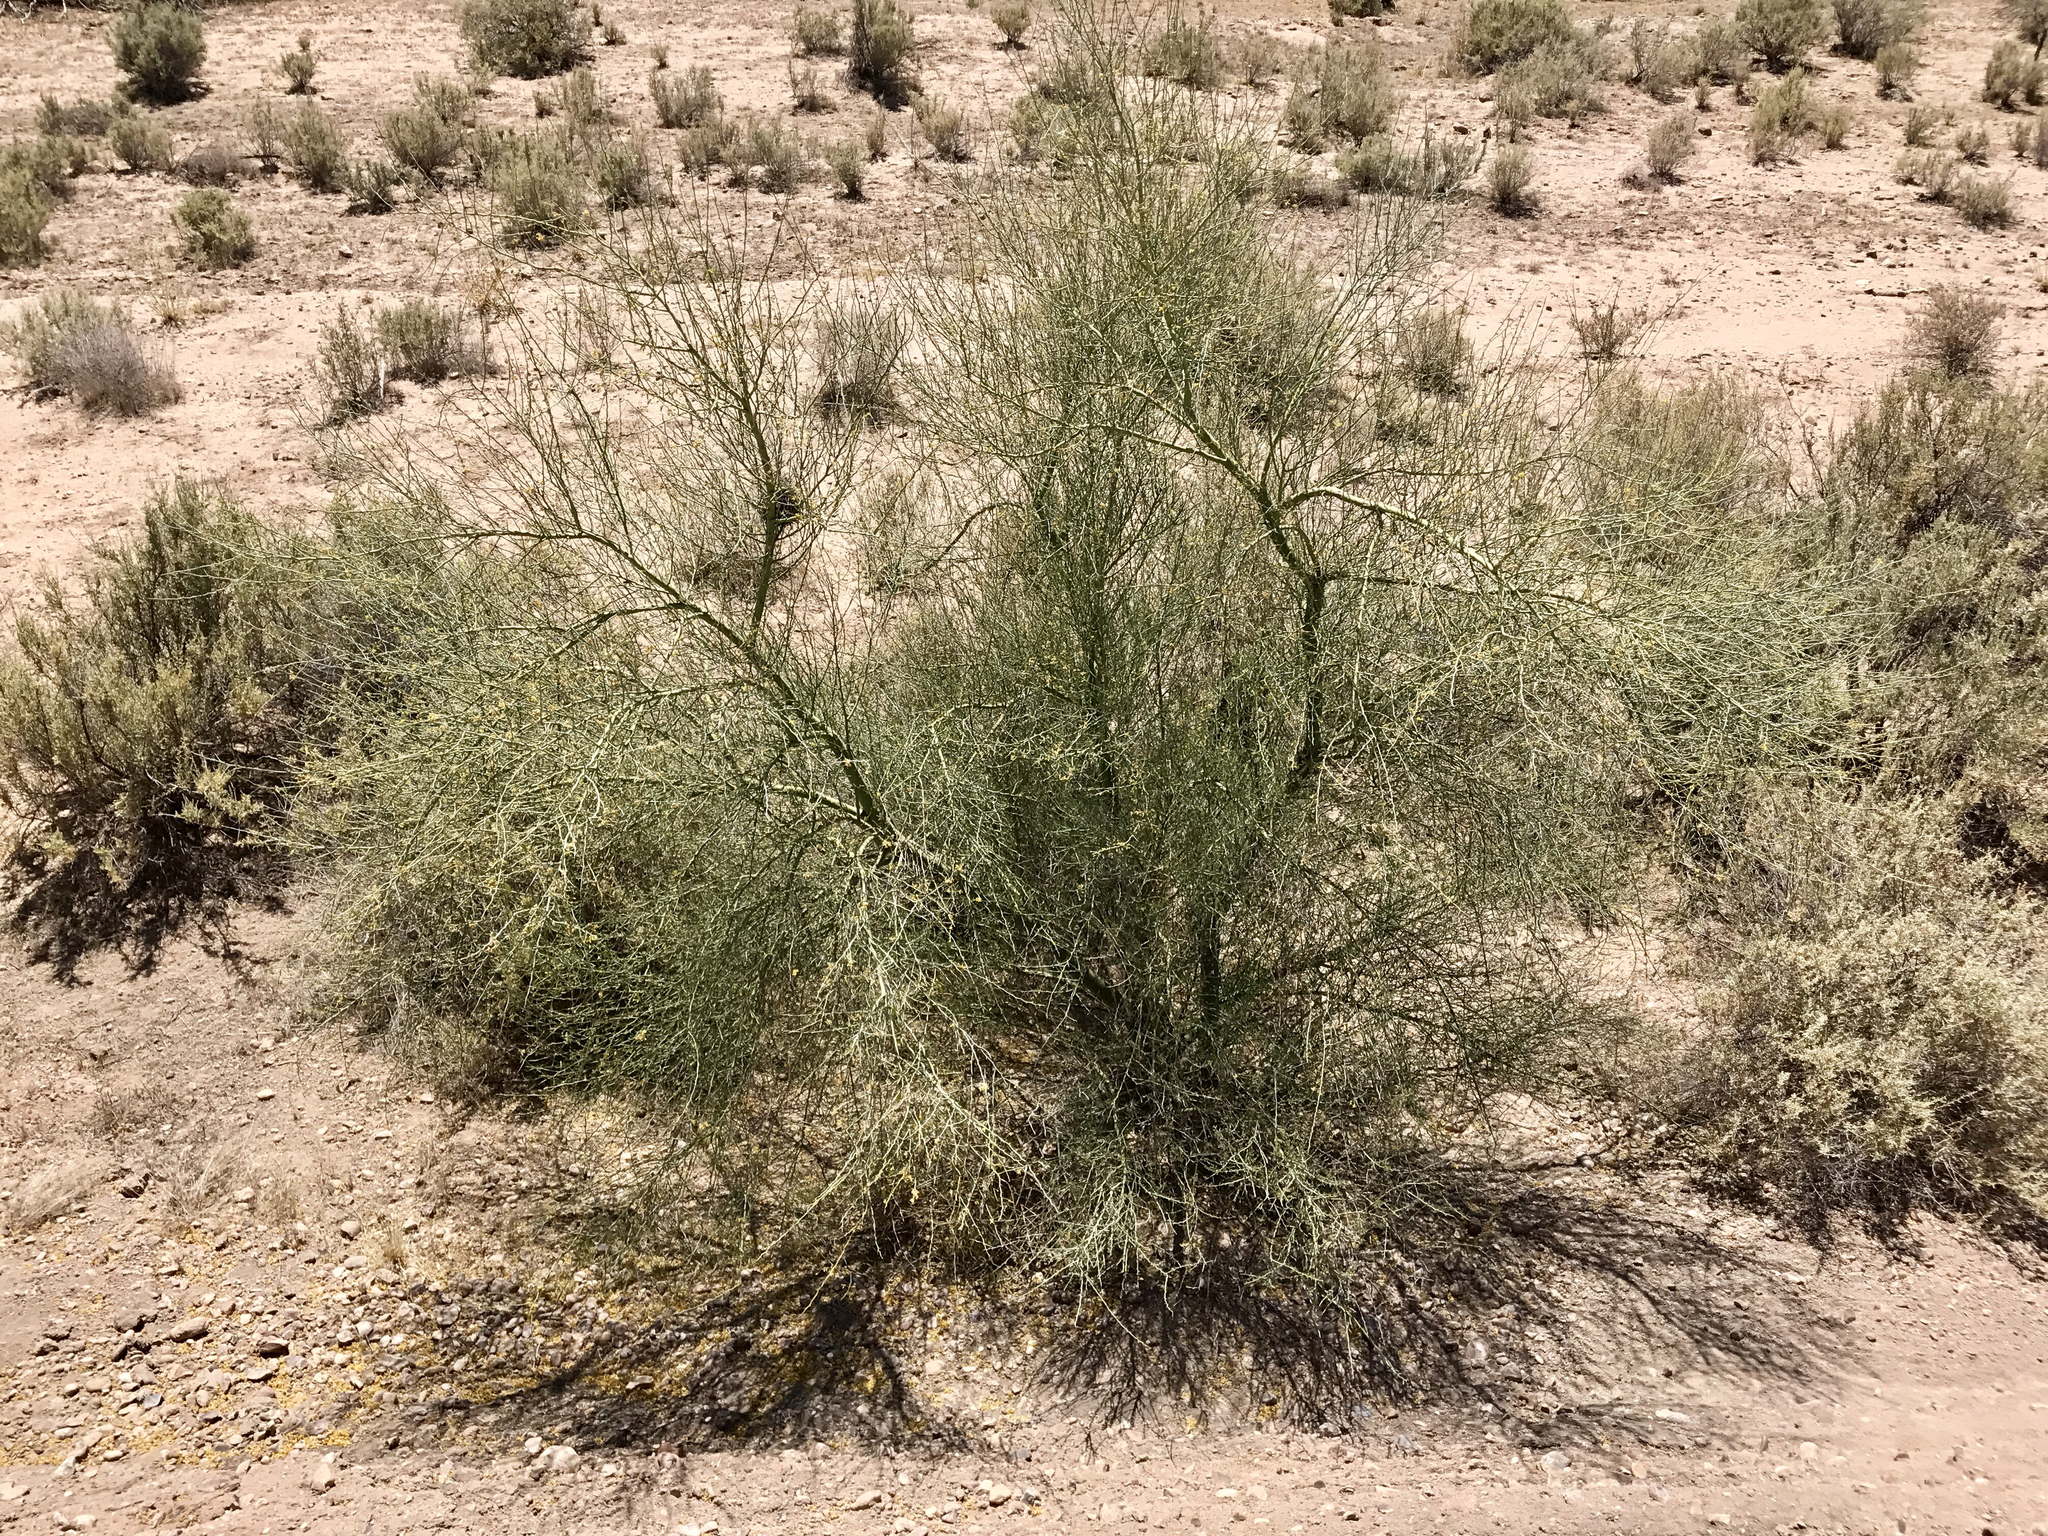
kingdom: Plantae
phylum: Tracheophyta
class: Magnoliopsida
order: Fabales
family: Fabaceae
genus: Parkinsonia
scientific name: Parkinsonia florida
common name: Blue paloverde
